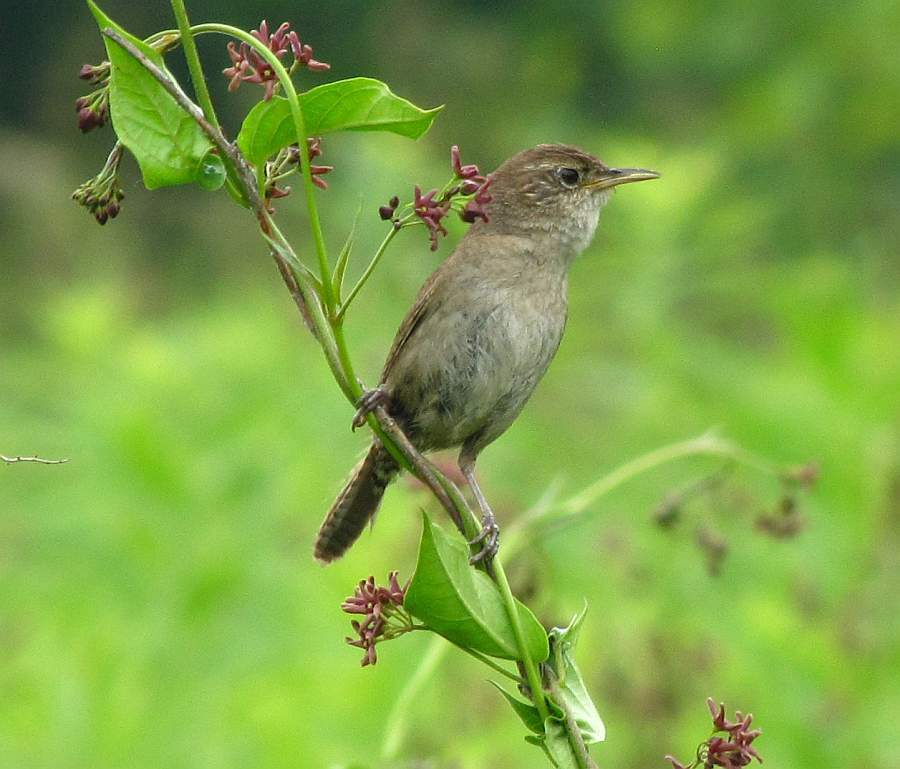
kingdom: Animalia
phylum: Chordata
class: Aves
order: Passeriformes
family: Troglodytidae
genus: Troglodytes
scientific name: Troglodytes aedon
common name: House wren
